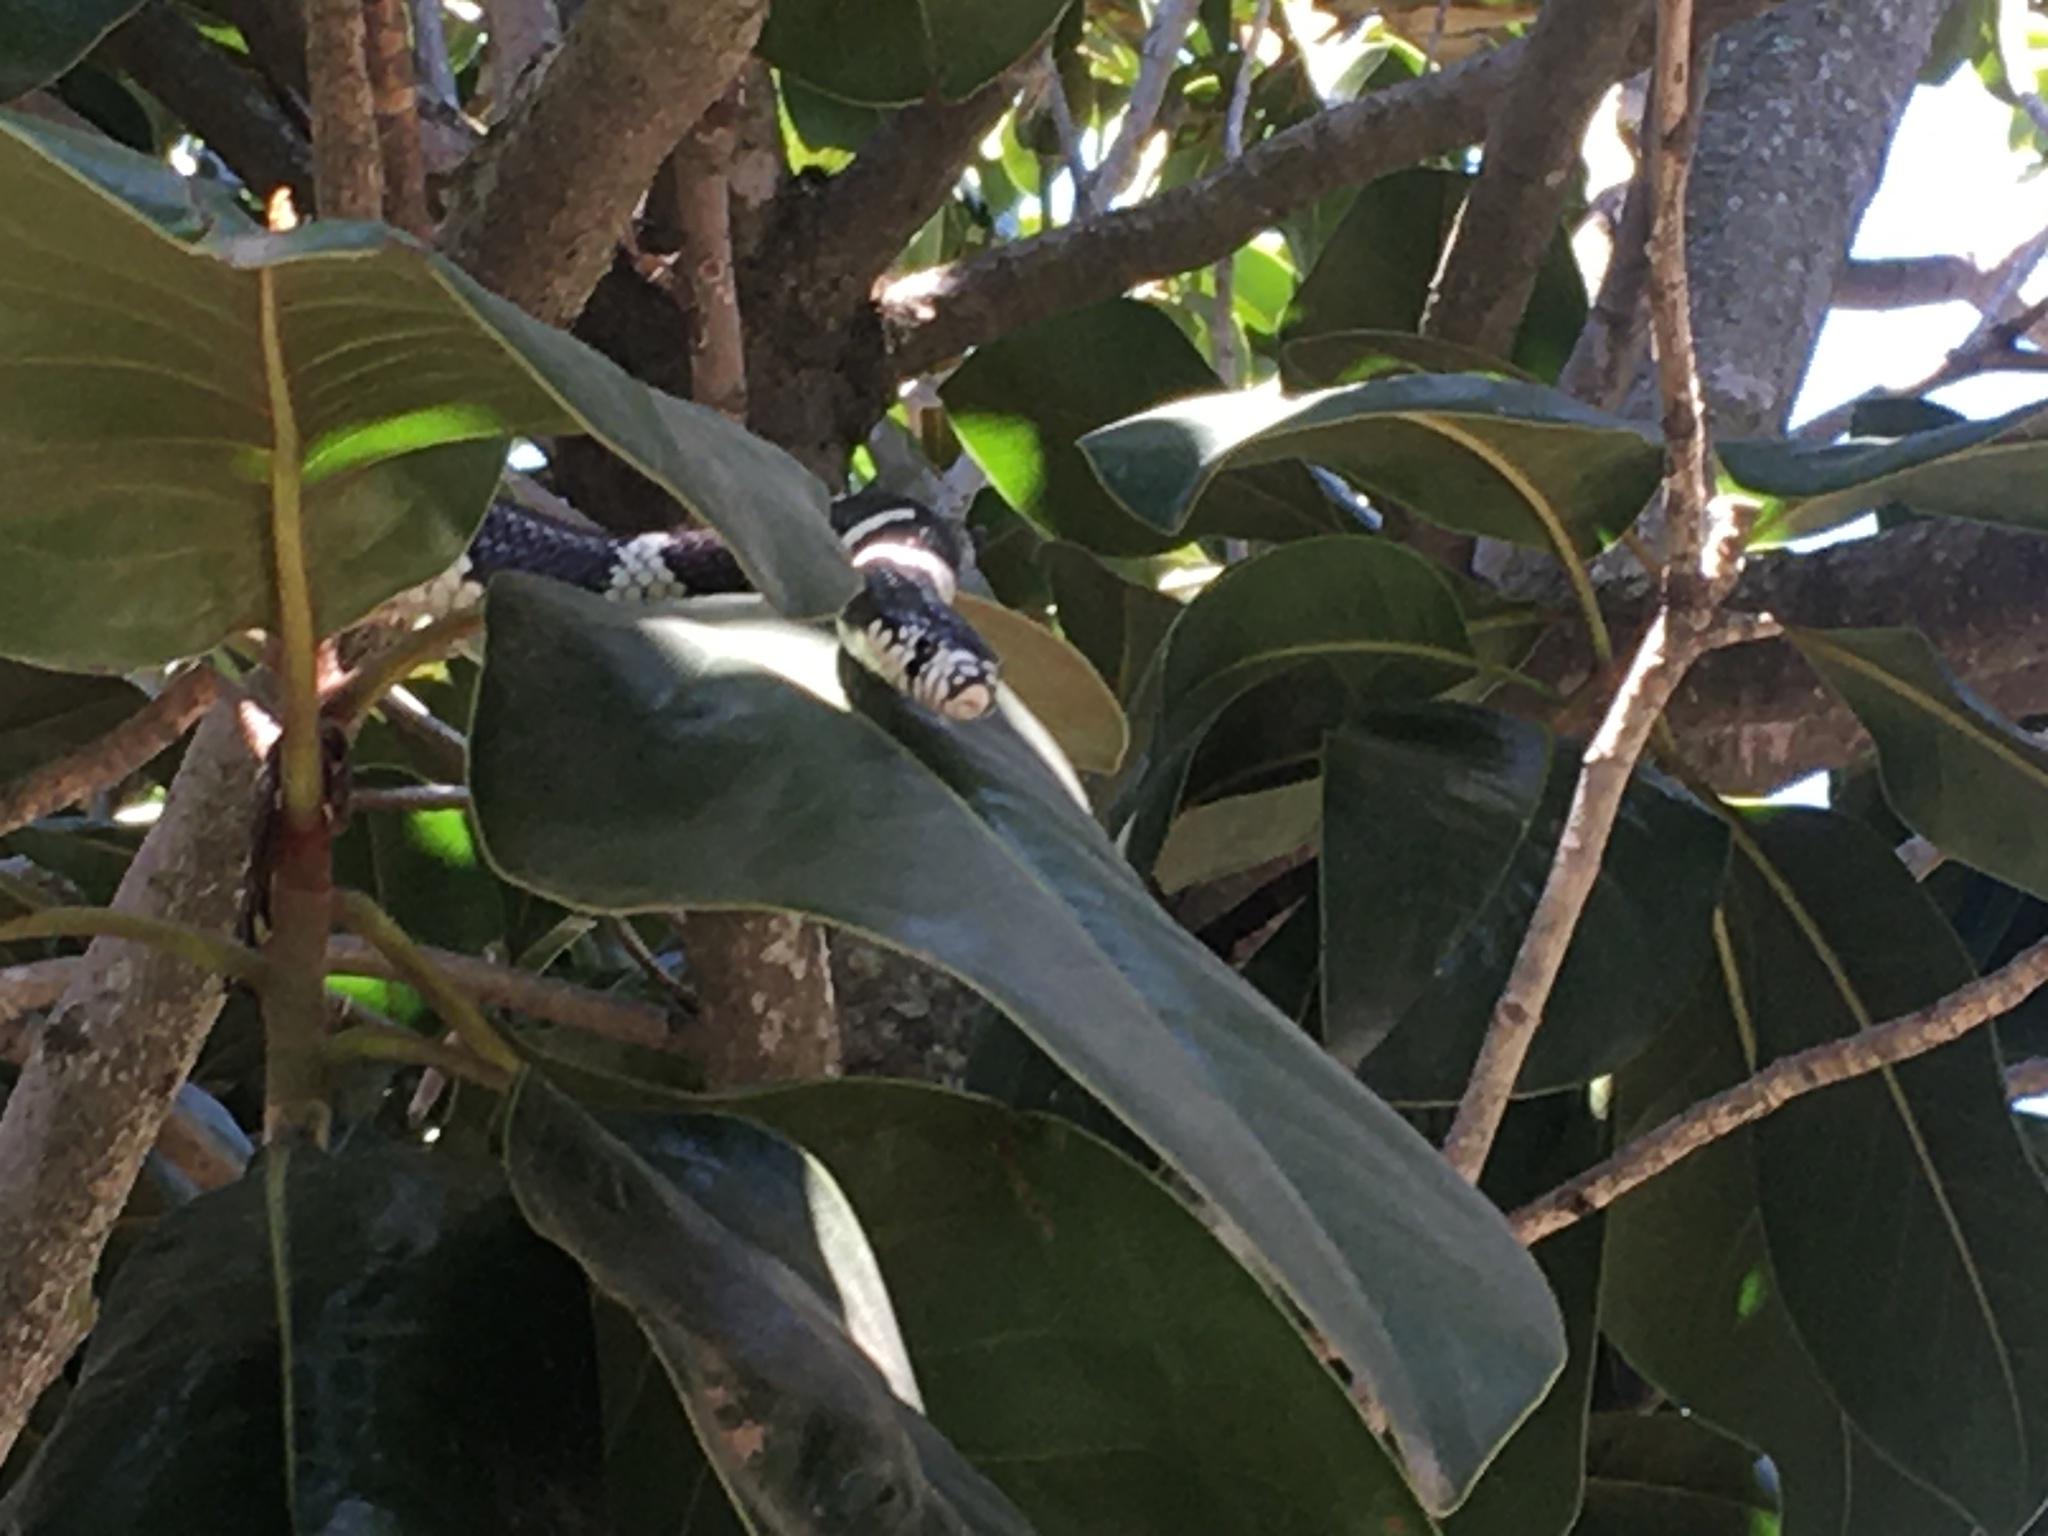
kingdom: Animalia
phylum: Chordata
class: Squamata
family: Colubridae
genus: Lampropeltis
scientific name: Lampropeltis californiae
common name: California kingsnake
